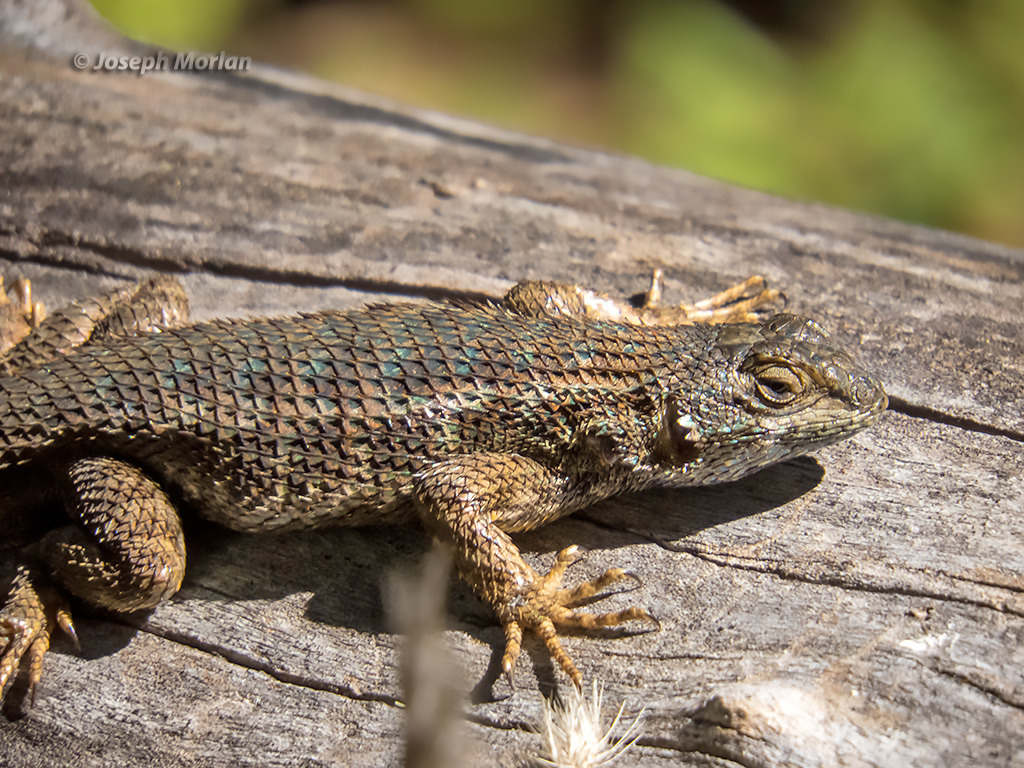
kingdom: Animalia
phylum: Chordata
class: Squamata
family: Phrynosomatidae
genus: Sceloporus
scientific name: Sceloporus occidentalis
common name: Western fence lizard
